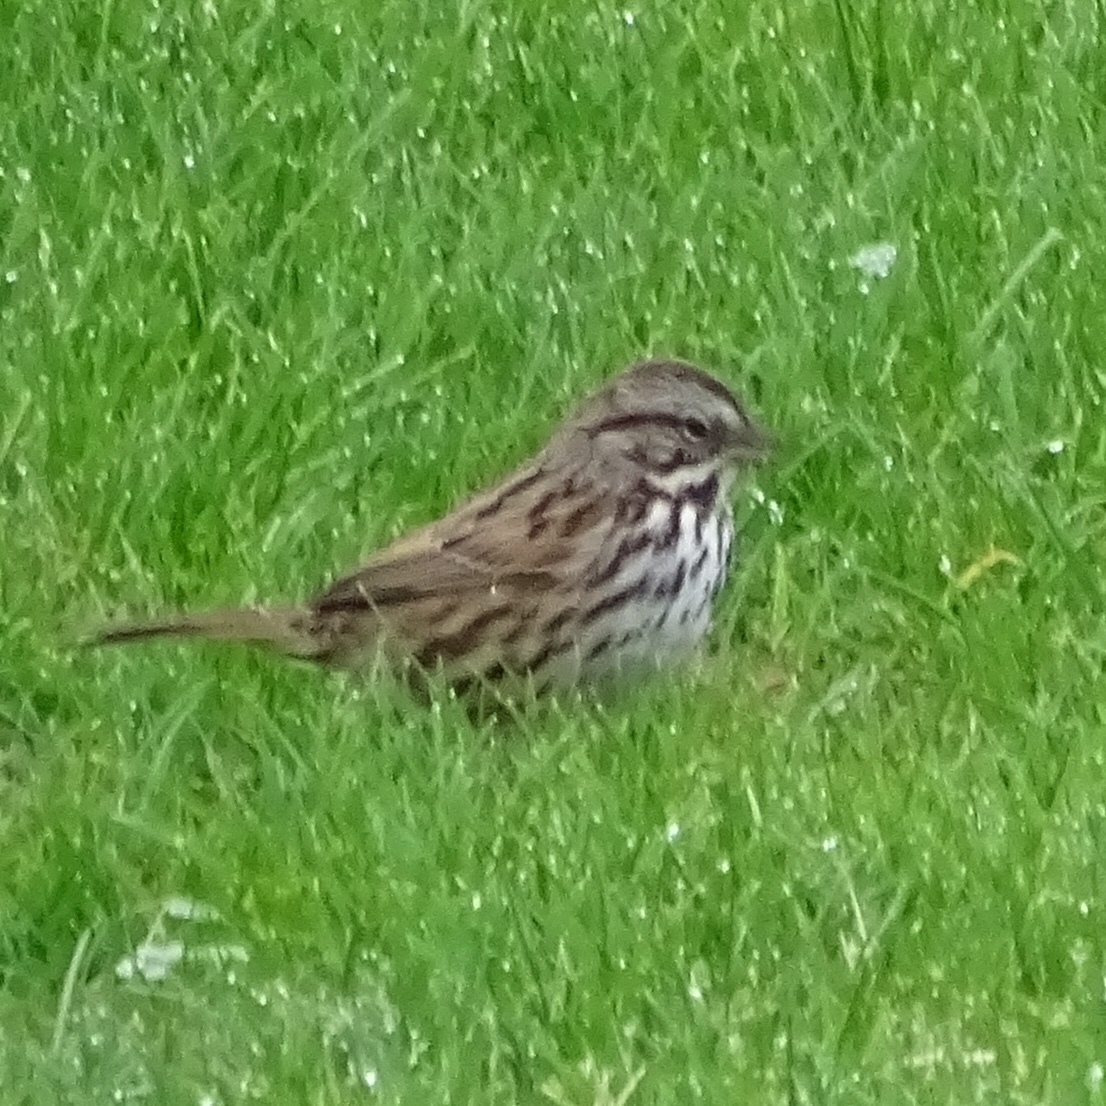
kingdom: Animalia
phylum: Chordata
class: Aves
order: Passeriformes
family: Passerellidae
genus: Melospiza
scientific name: Melospiza melodia
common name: Song sparrow
